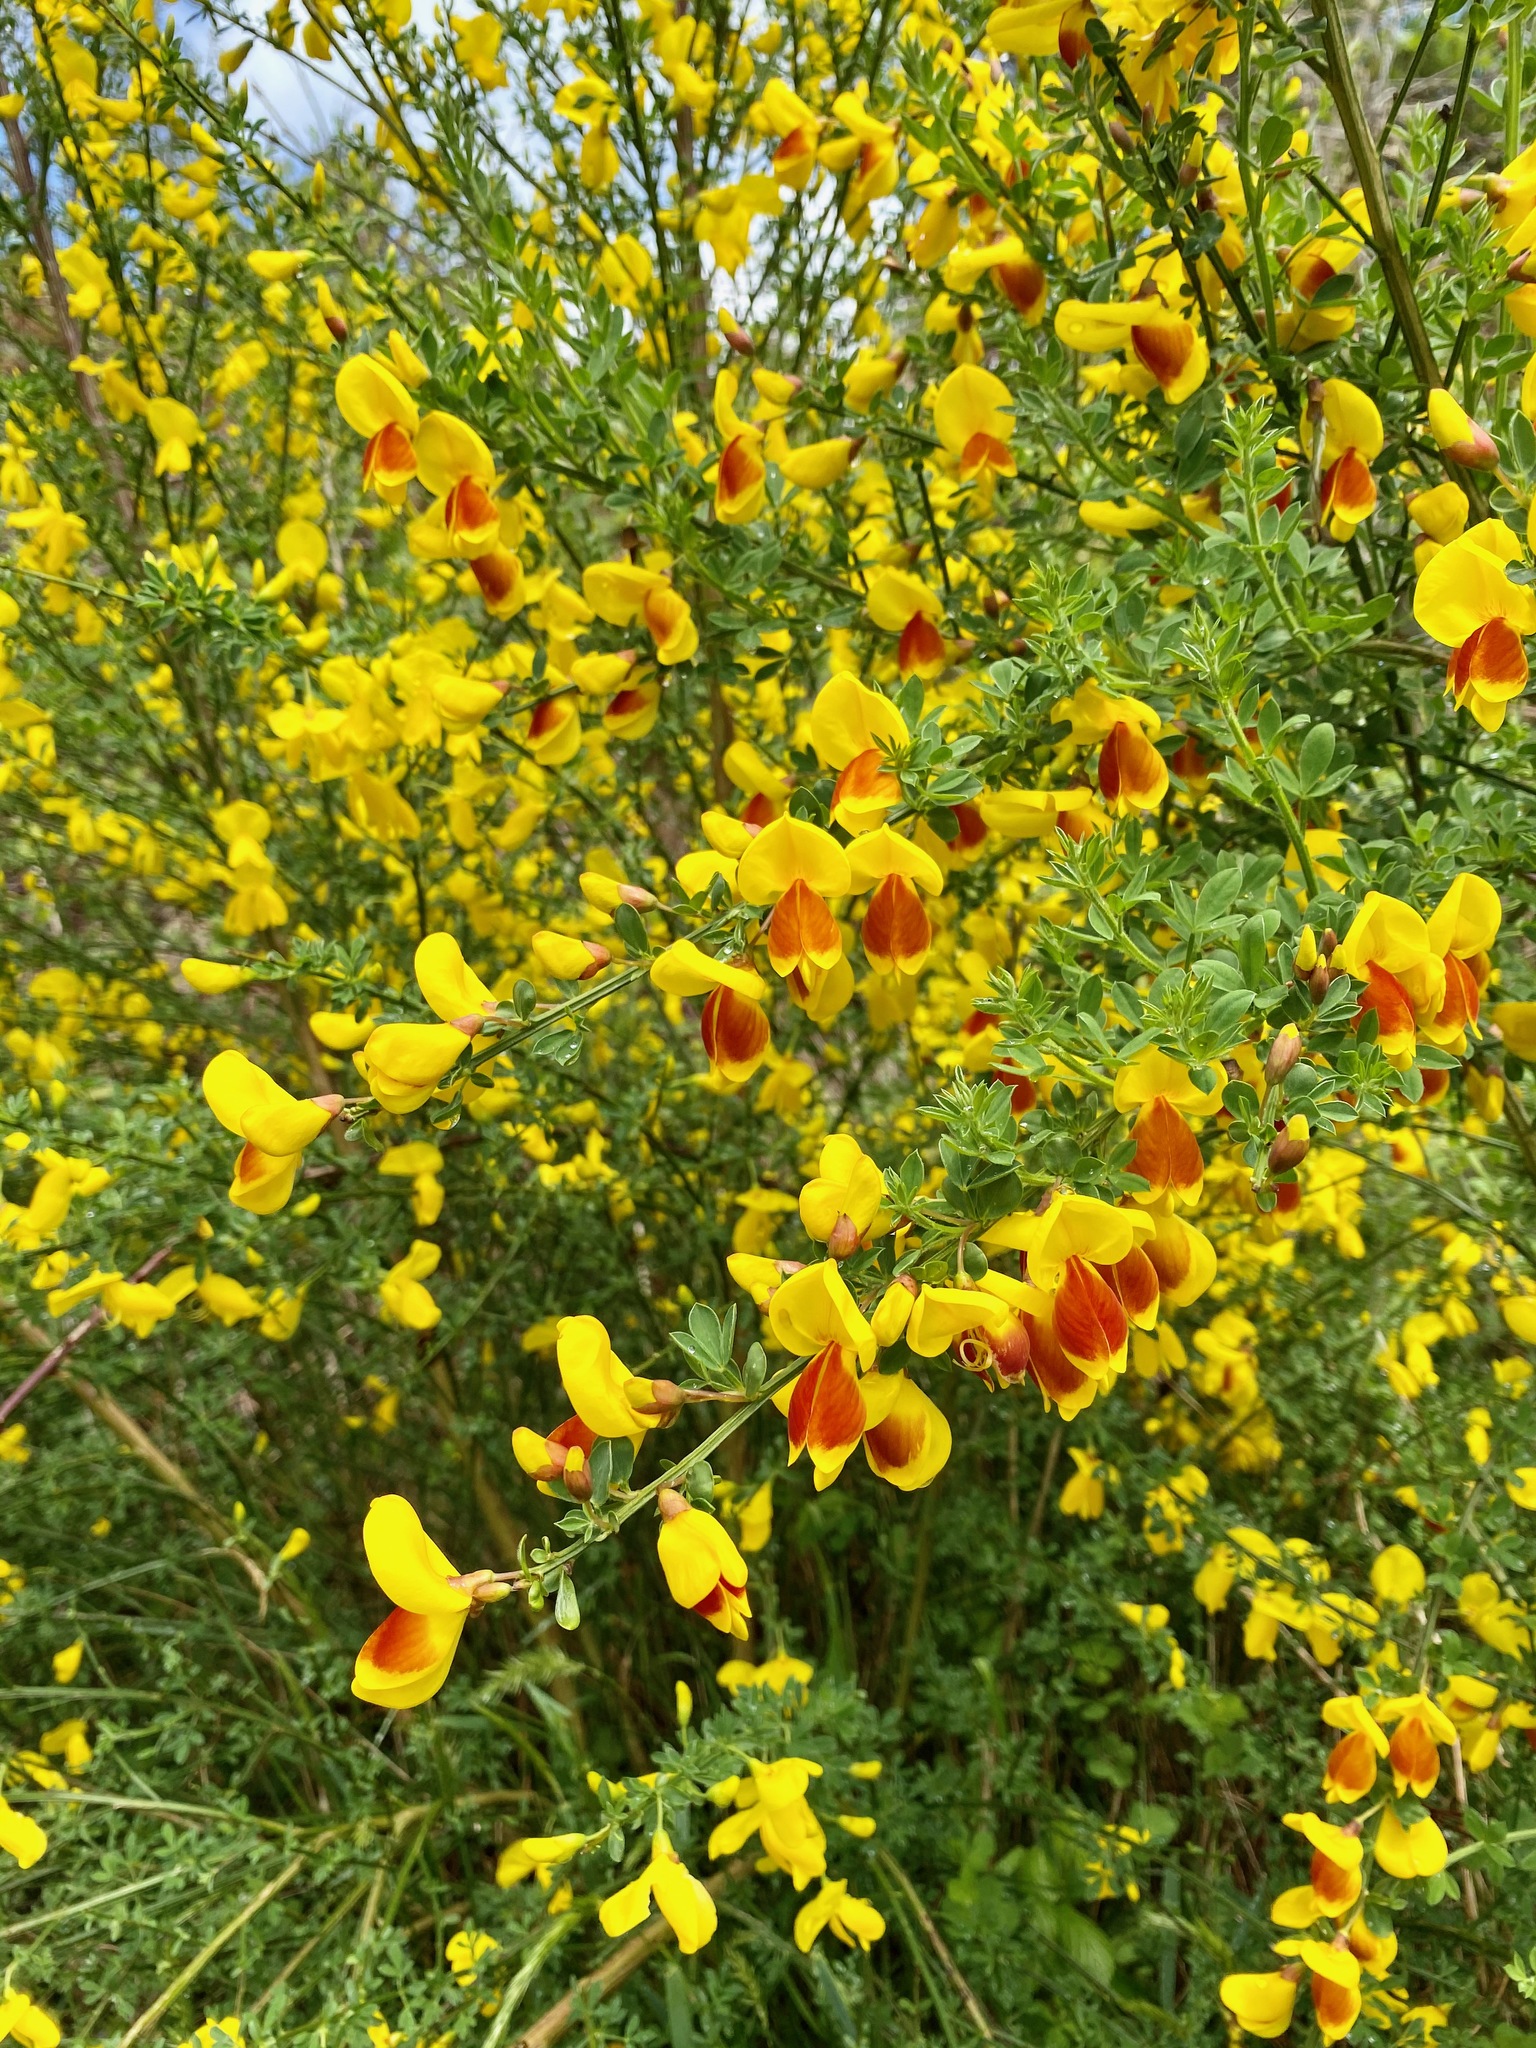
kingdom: Plantae
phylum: Tracheophyta
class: Magnoliopsida
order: Fabales
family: Fabaceae
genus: Cytisus
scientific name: Cytisus scoparius
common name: Scotch broom
